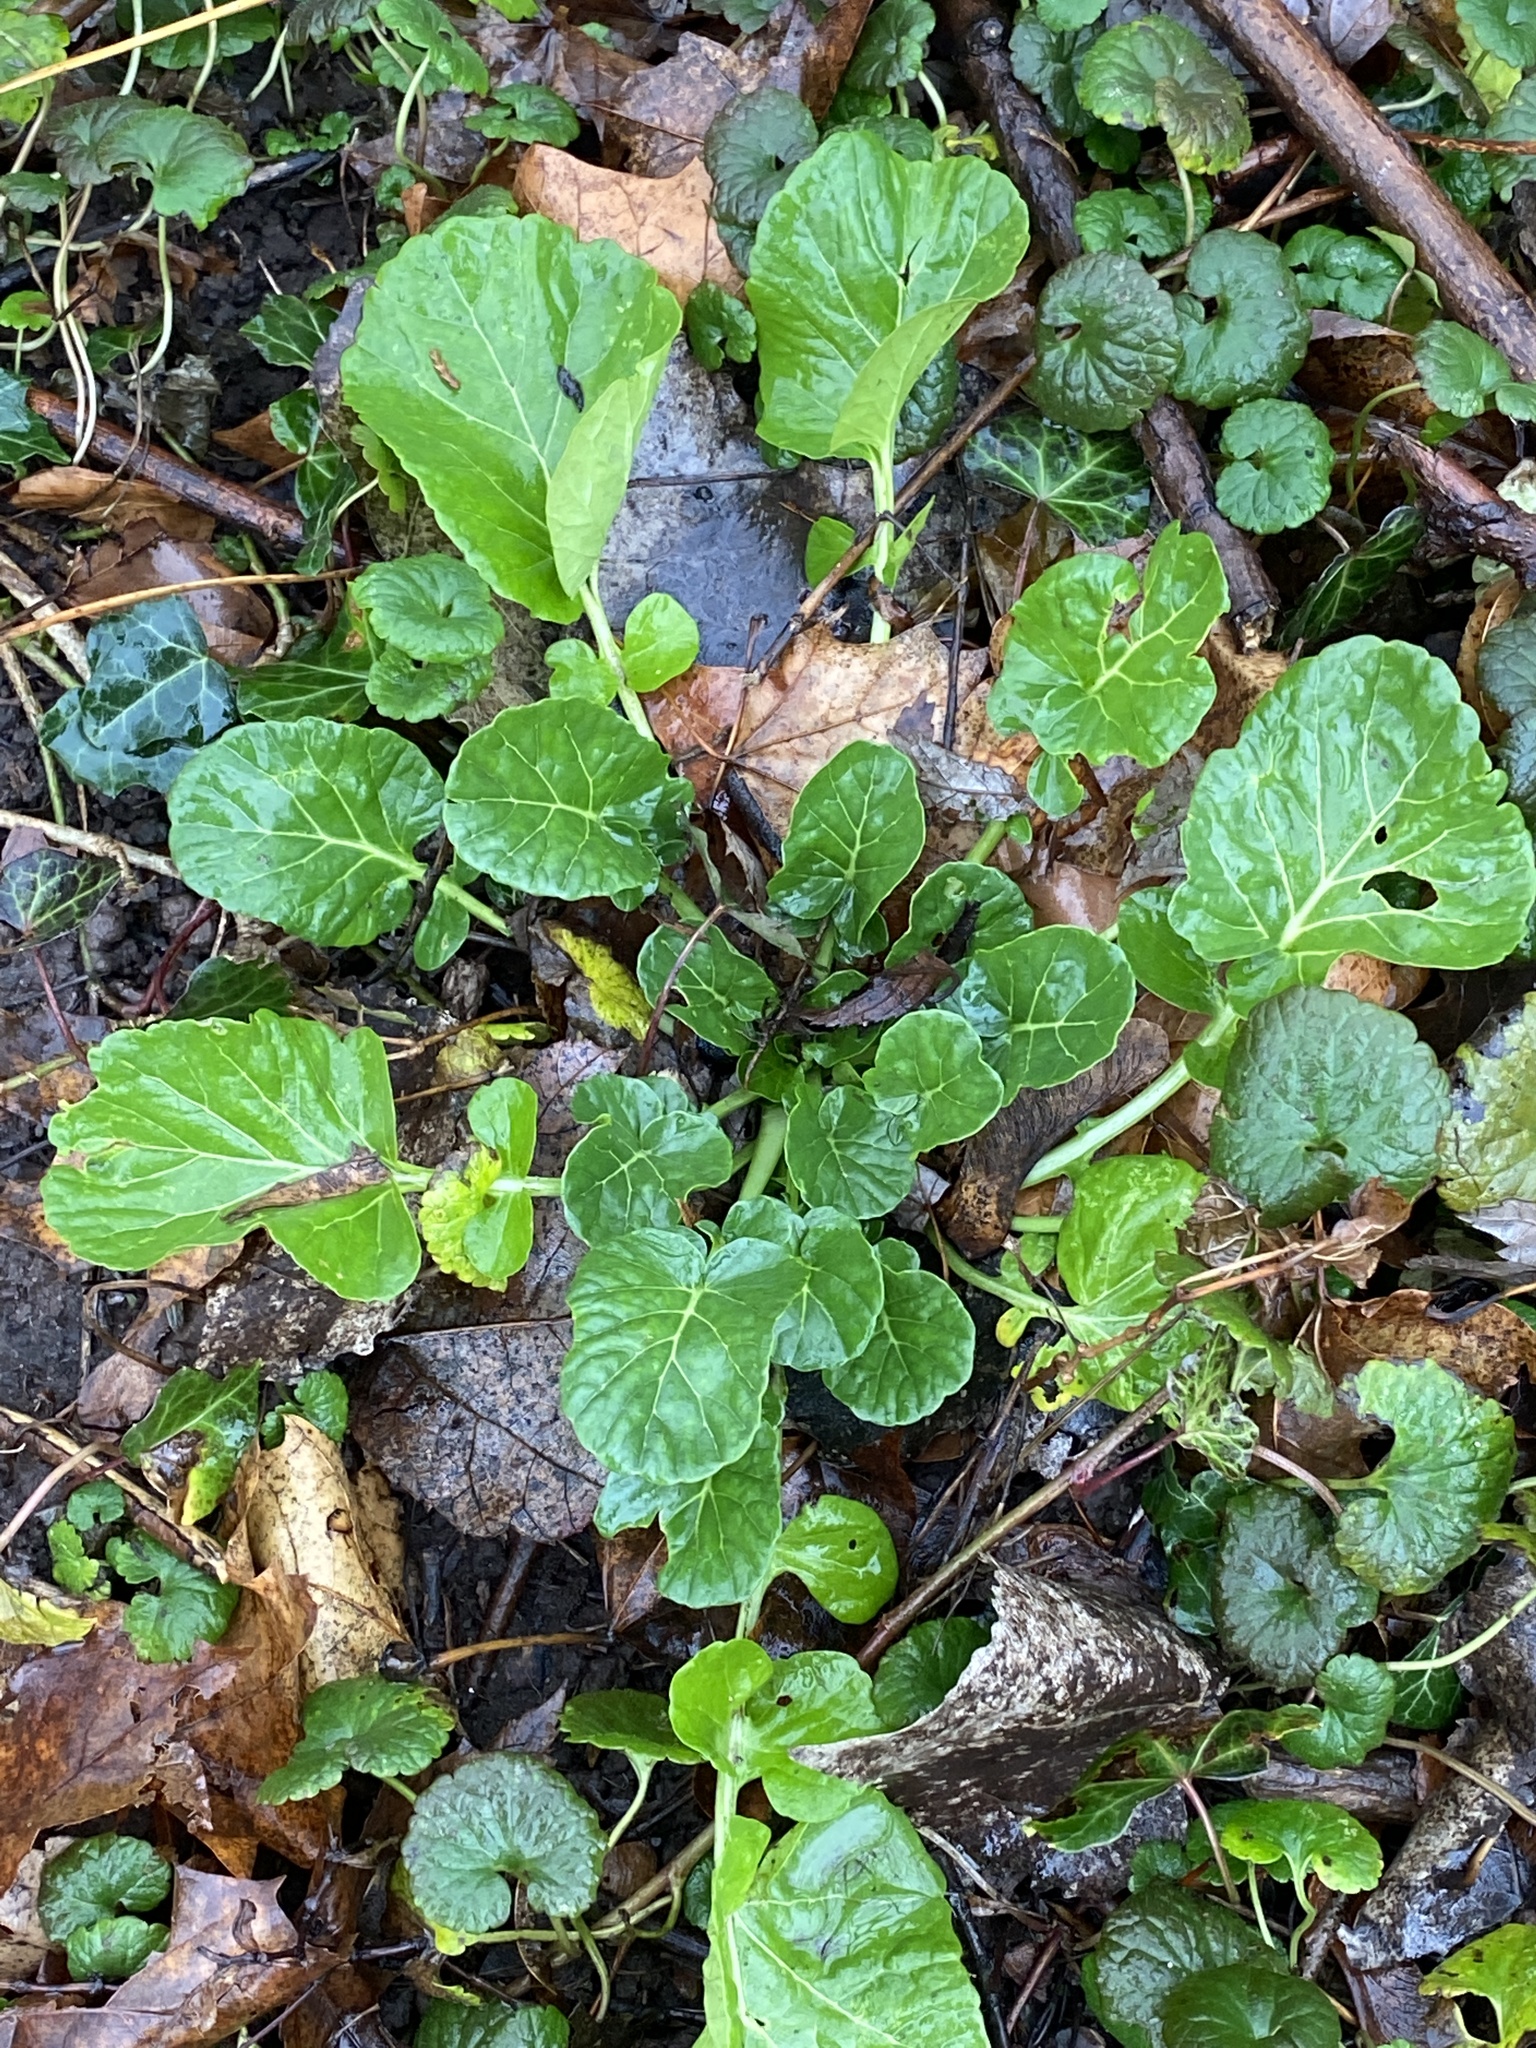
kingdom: Plantae
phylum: Tracheophyta
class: Magnoliopsida
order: Brassicales
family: Brassicaceae
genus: Barbarea
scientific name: Barbarea vulgaris
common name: Cressy-greens
